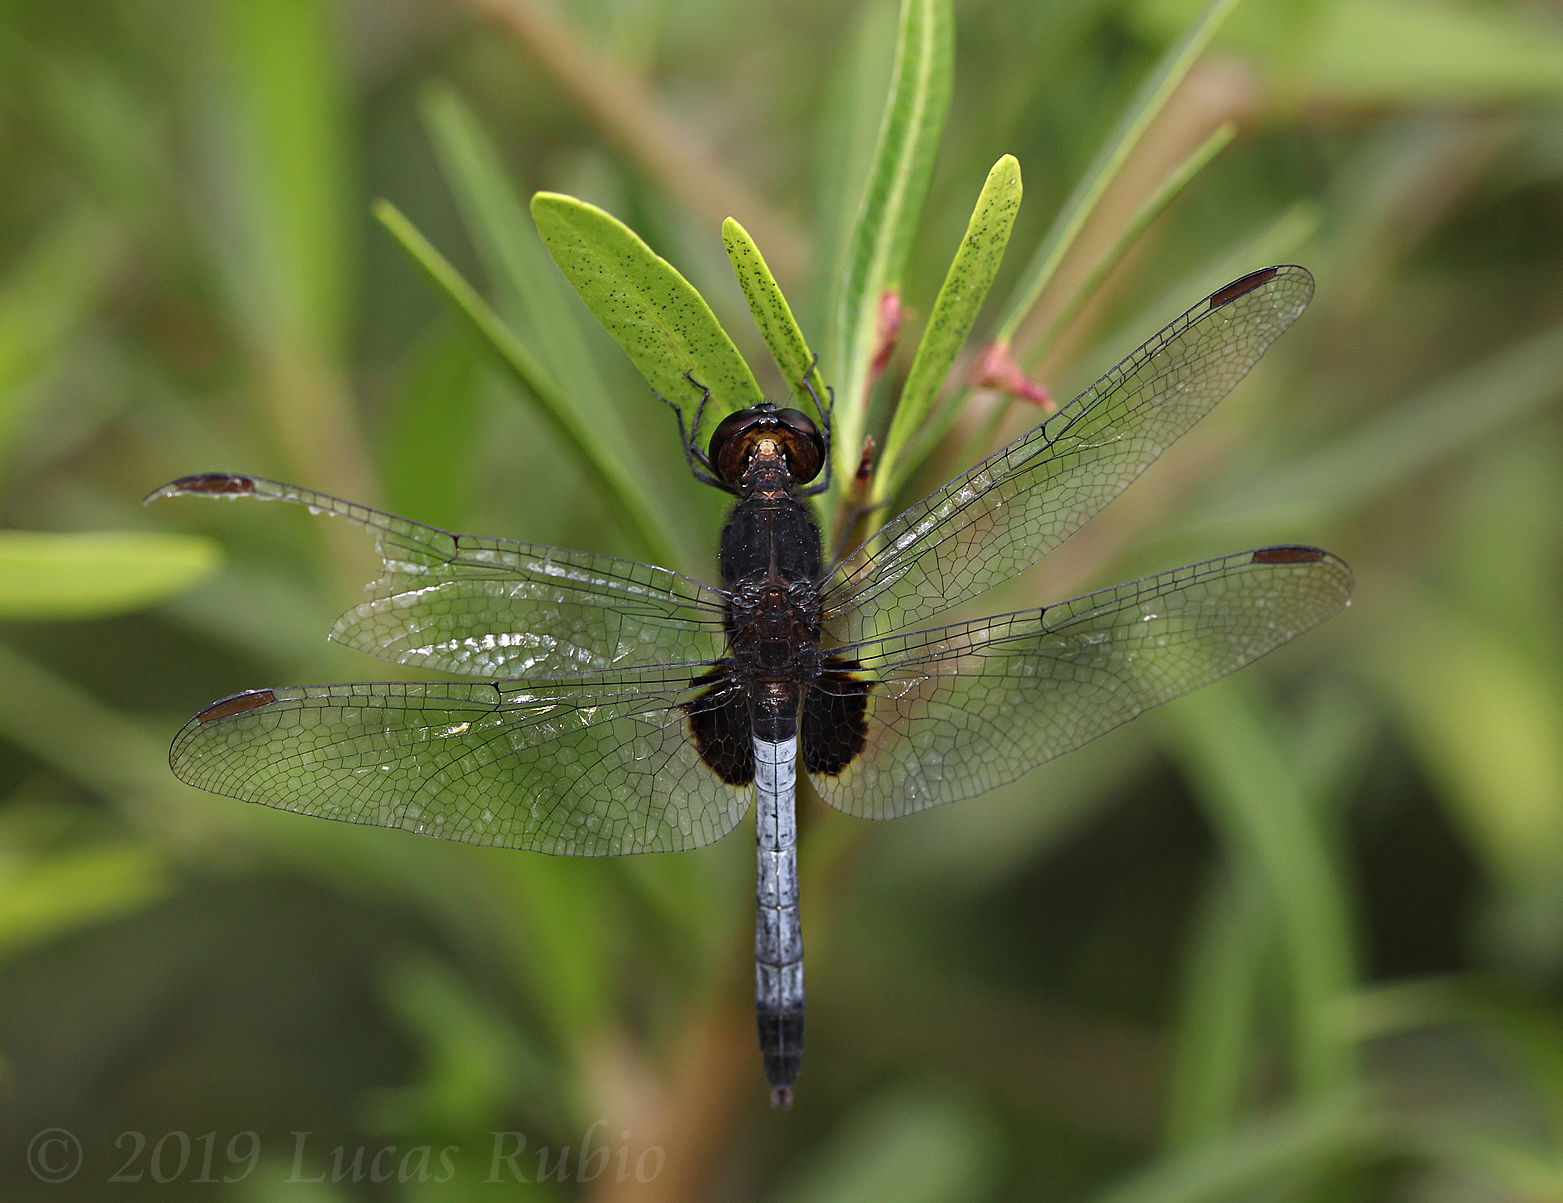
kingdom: Animalia
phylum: Arthropoda
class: Insecta
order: Odonata
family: Libellulidae
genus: Erythrodiplax
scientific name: Erythrodiplax media
